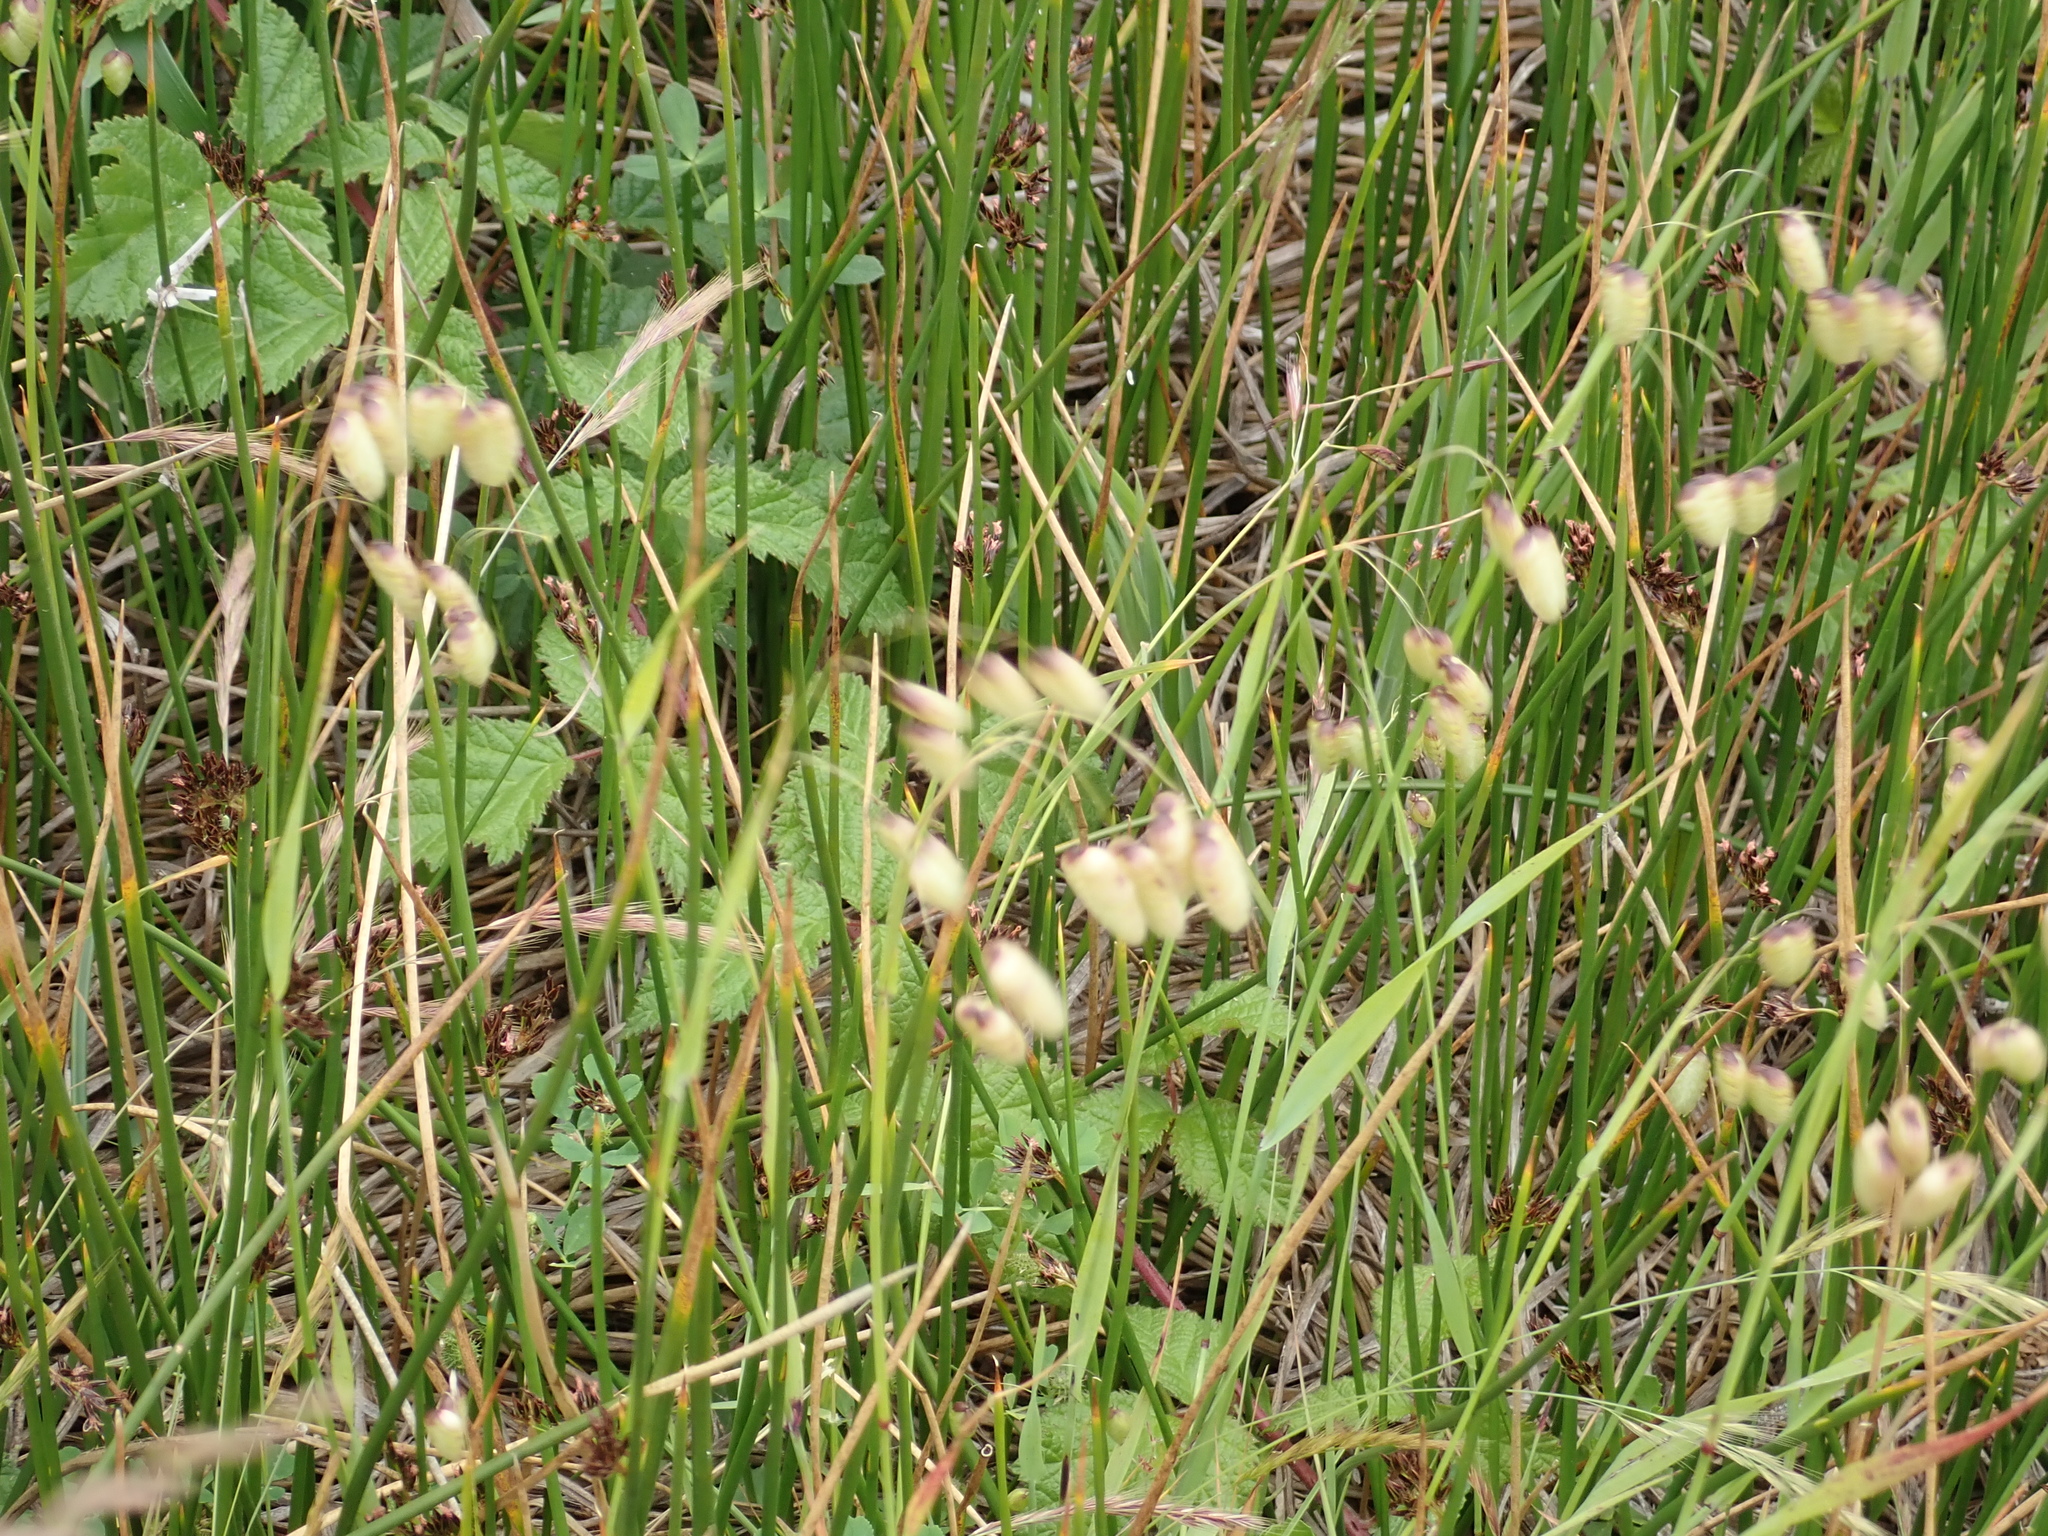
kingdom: Plantae
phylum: Tracheophyta
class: Liliopsida
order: Poales
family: Poaceae
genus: Briza
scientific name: Briza maxima
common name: Big quakinggrass
